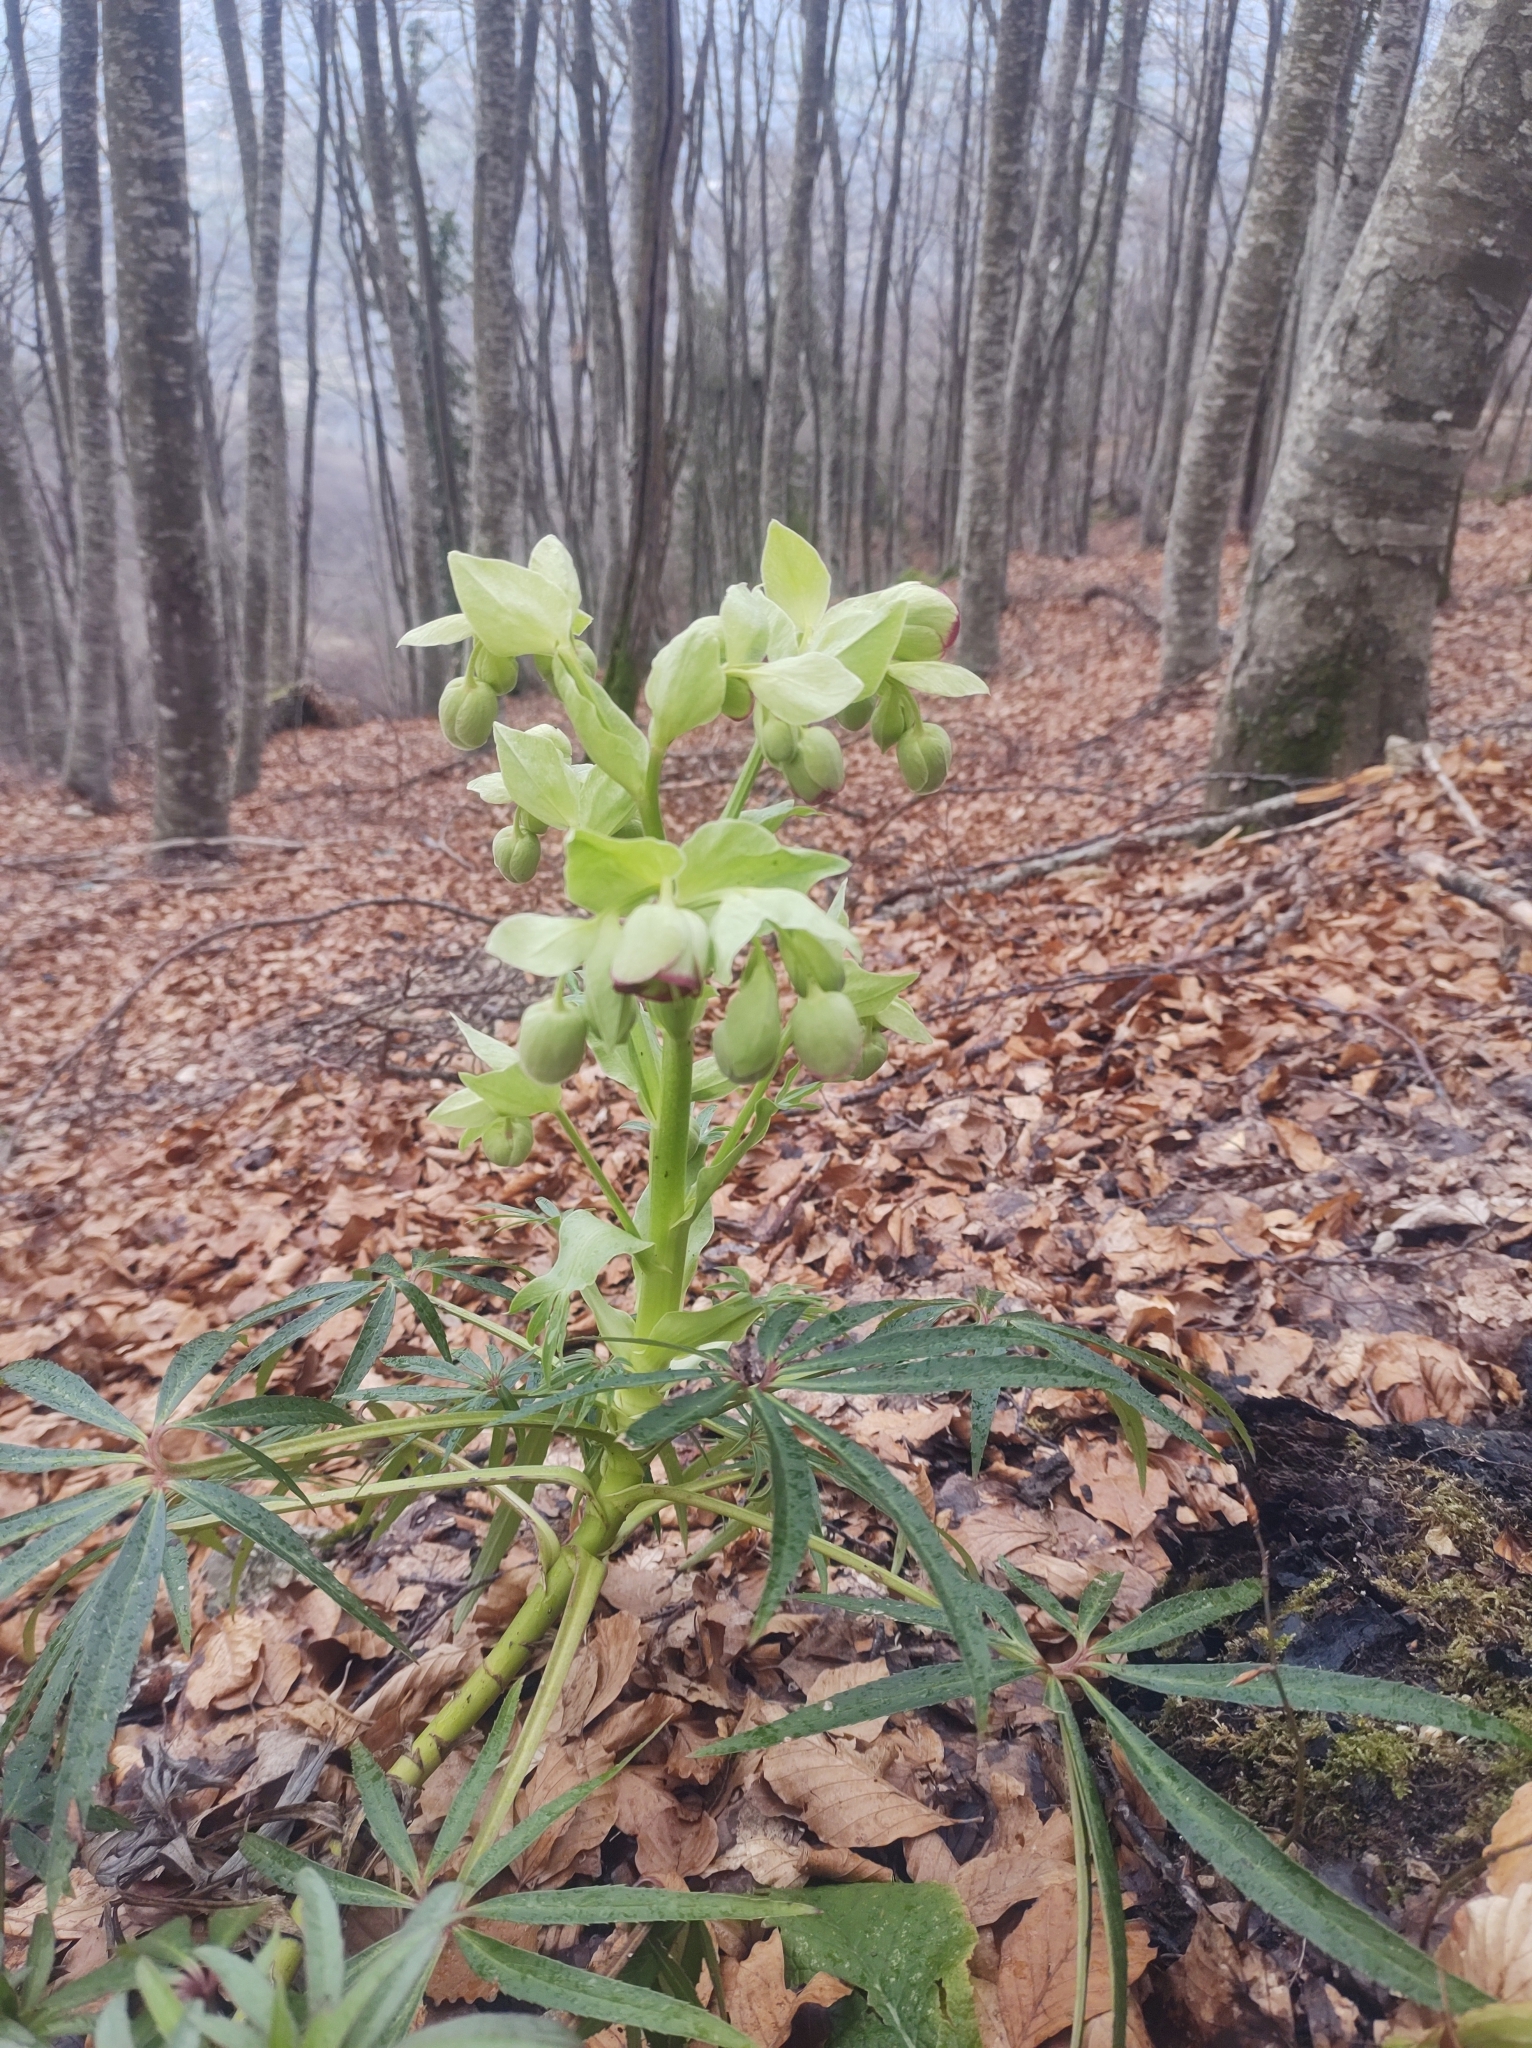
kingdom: Plantae
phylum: Tracheophyta
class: Magnoliopsida
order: Ranunculales
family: Ranunculaceae
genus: Helleborus
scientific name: Helleborus foetidus
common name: Stinking hellebore
